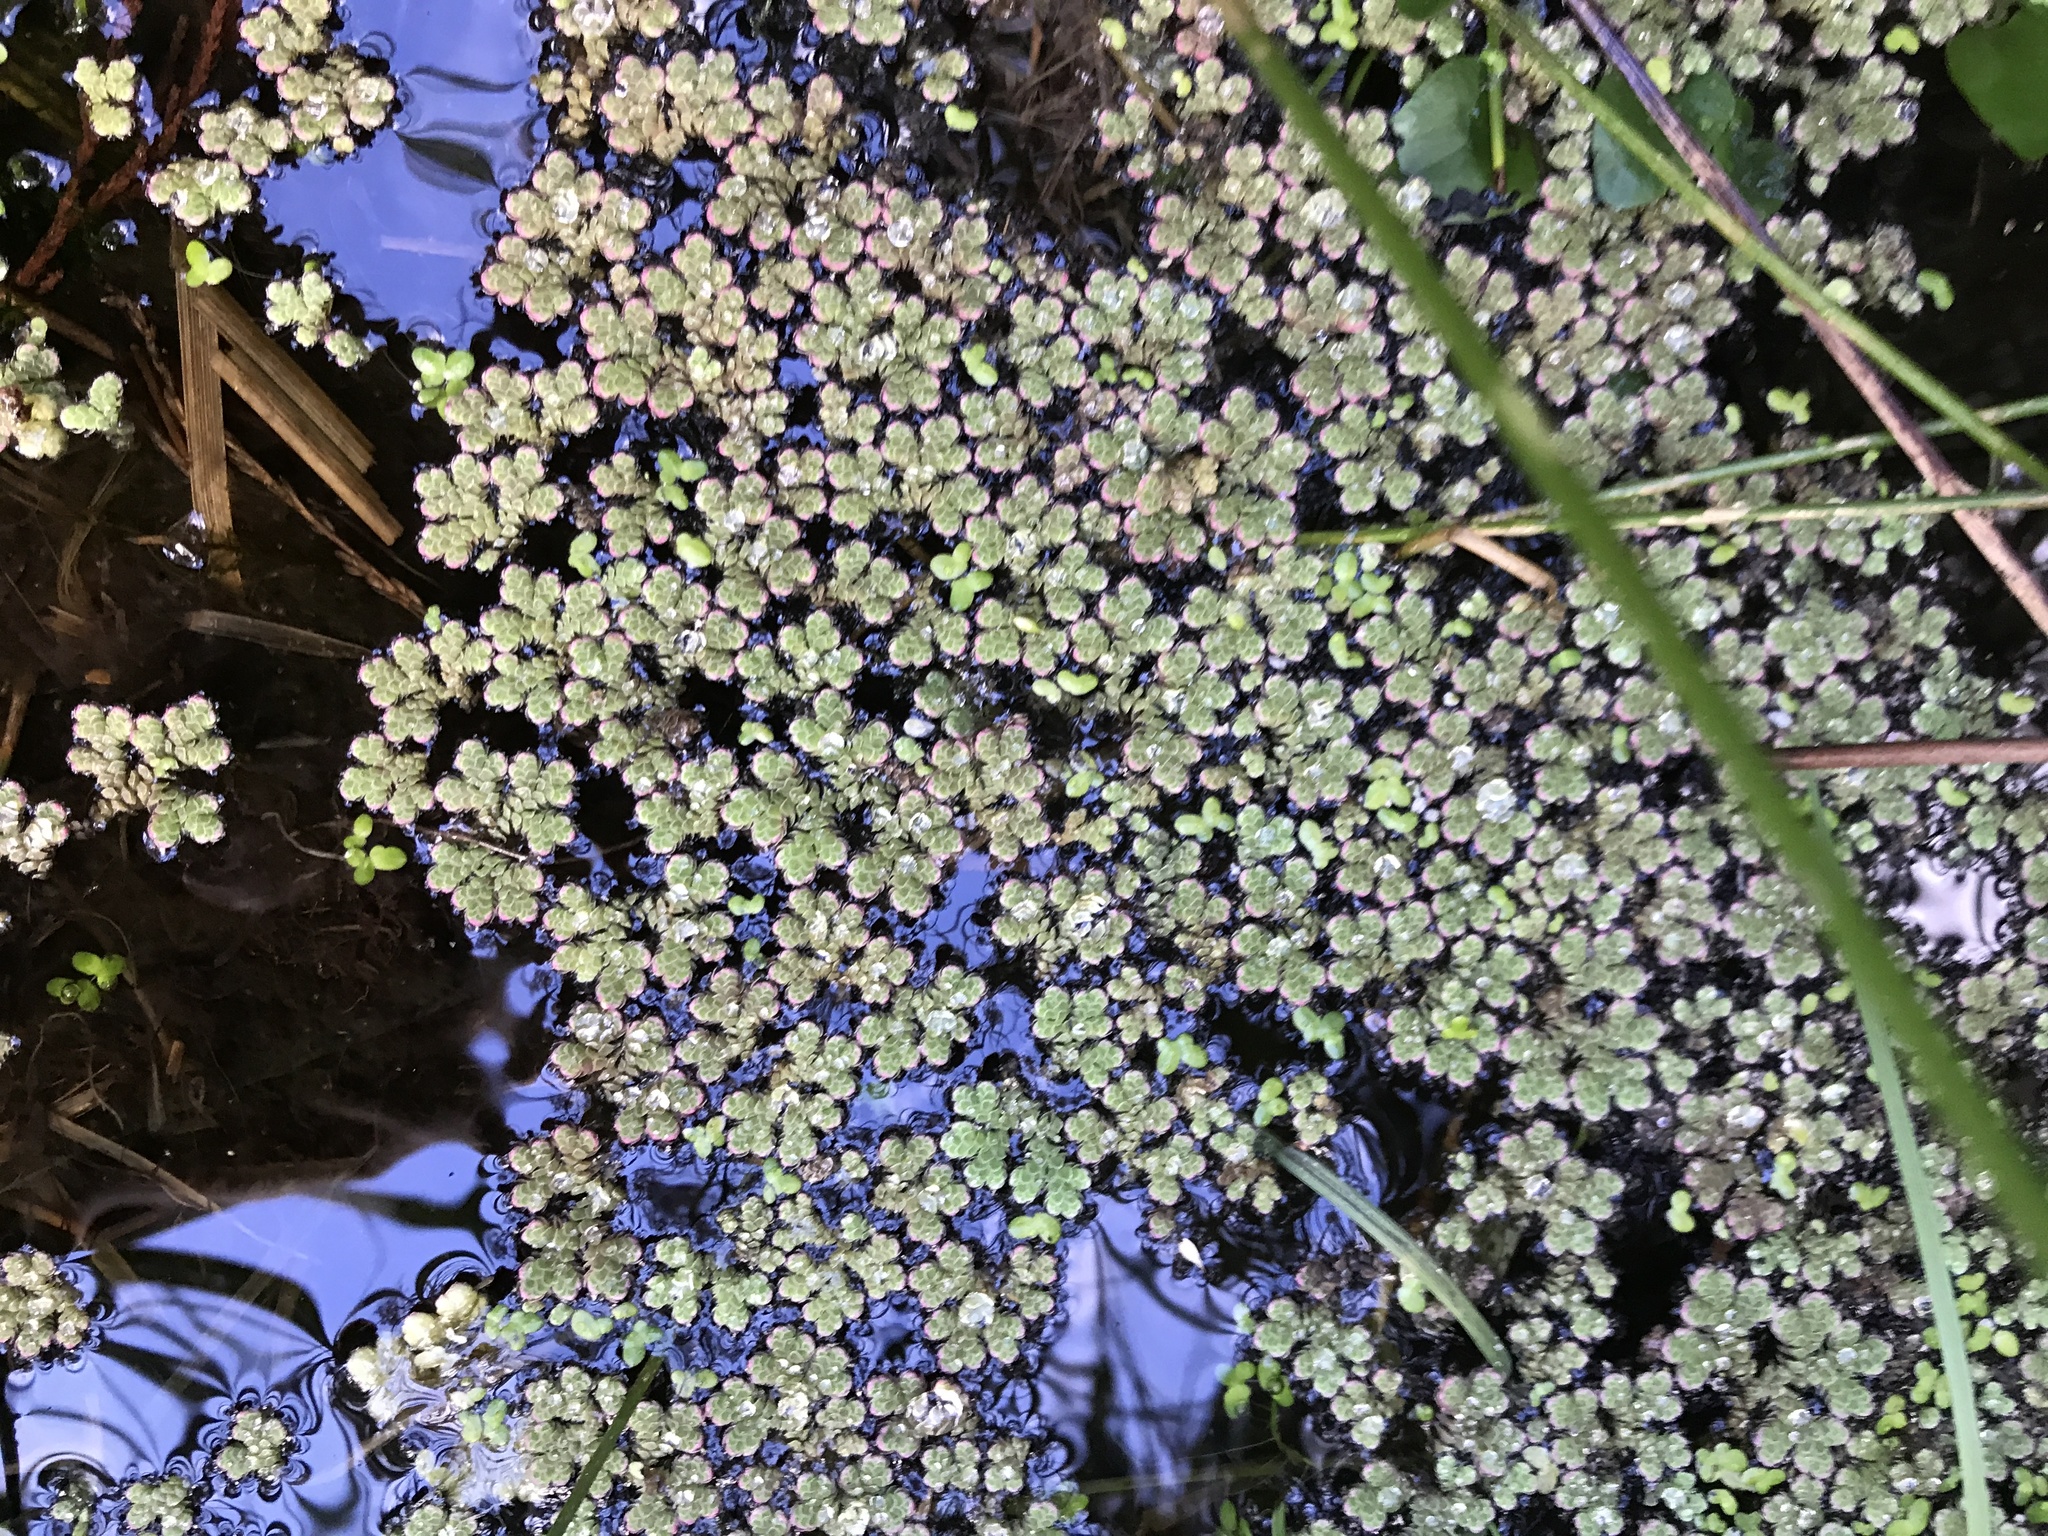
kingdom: Plantae
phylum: Tracheophyta
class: Polypodiopsida
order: Salviniales
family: Salviniaceae
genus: Azolla
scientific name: Azolla rubra
